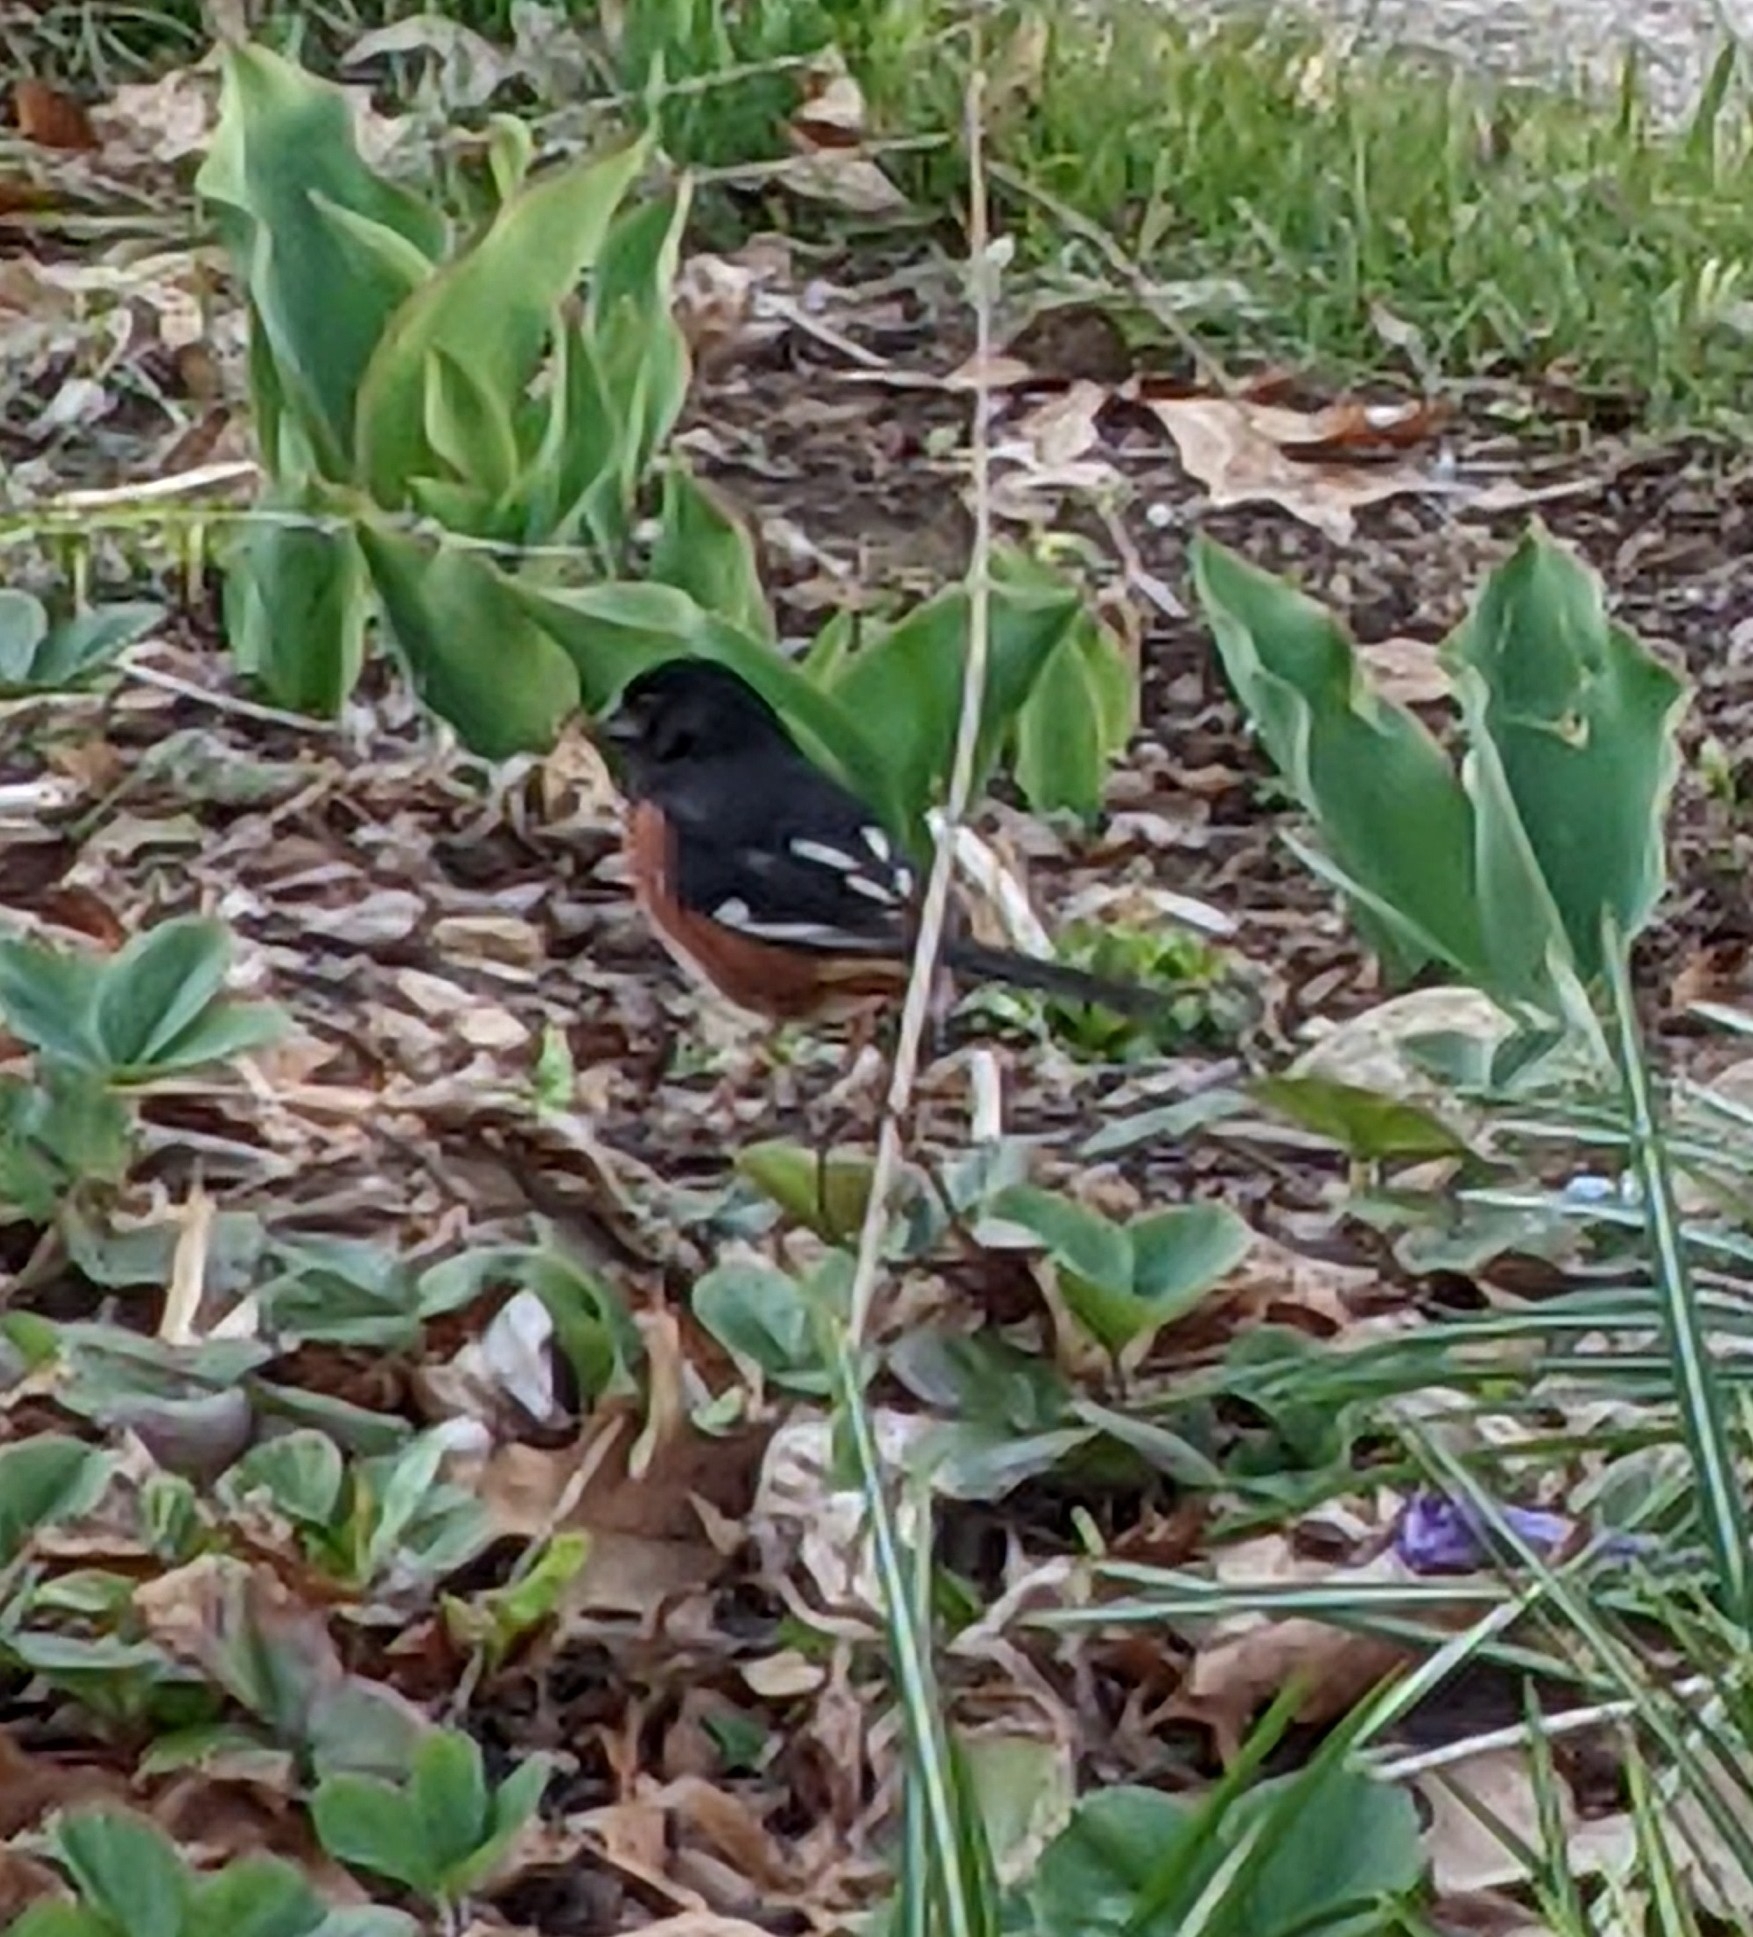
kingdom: Animalia
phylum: Chordata
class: Aves
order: Passeriformes
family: Passerellidae
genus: Pipilo
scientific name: Pipilo erythrophthalmus
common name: Eastern towhee
